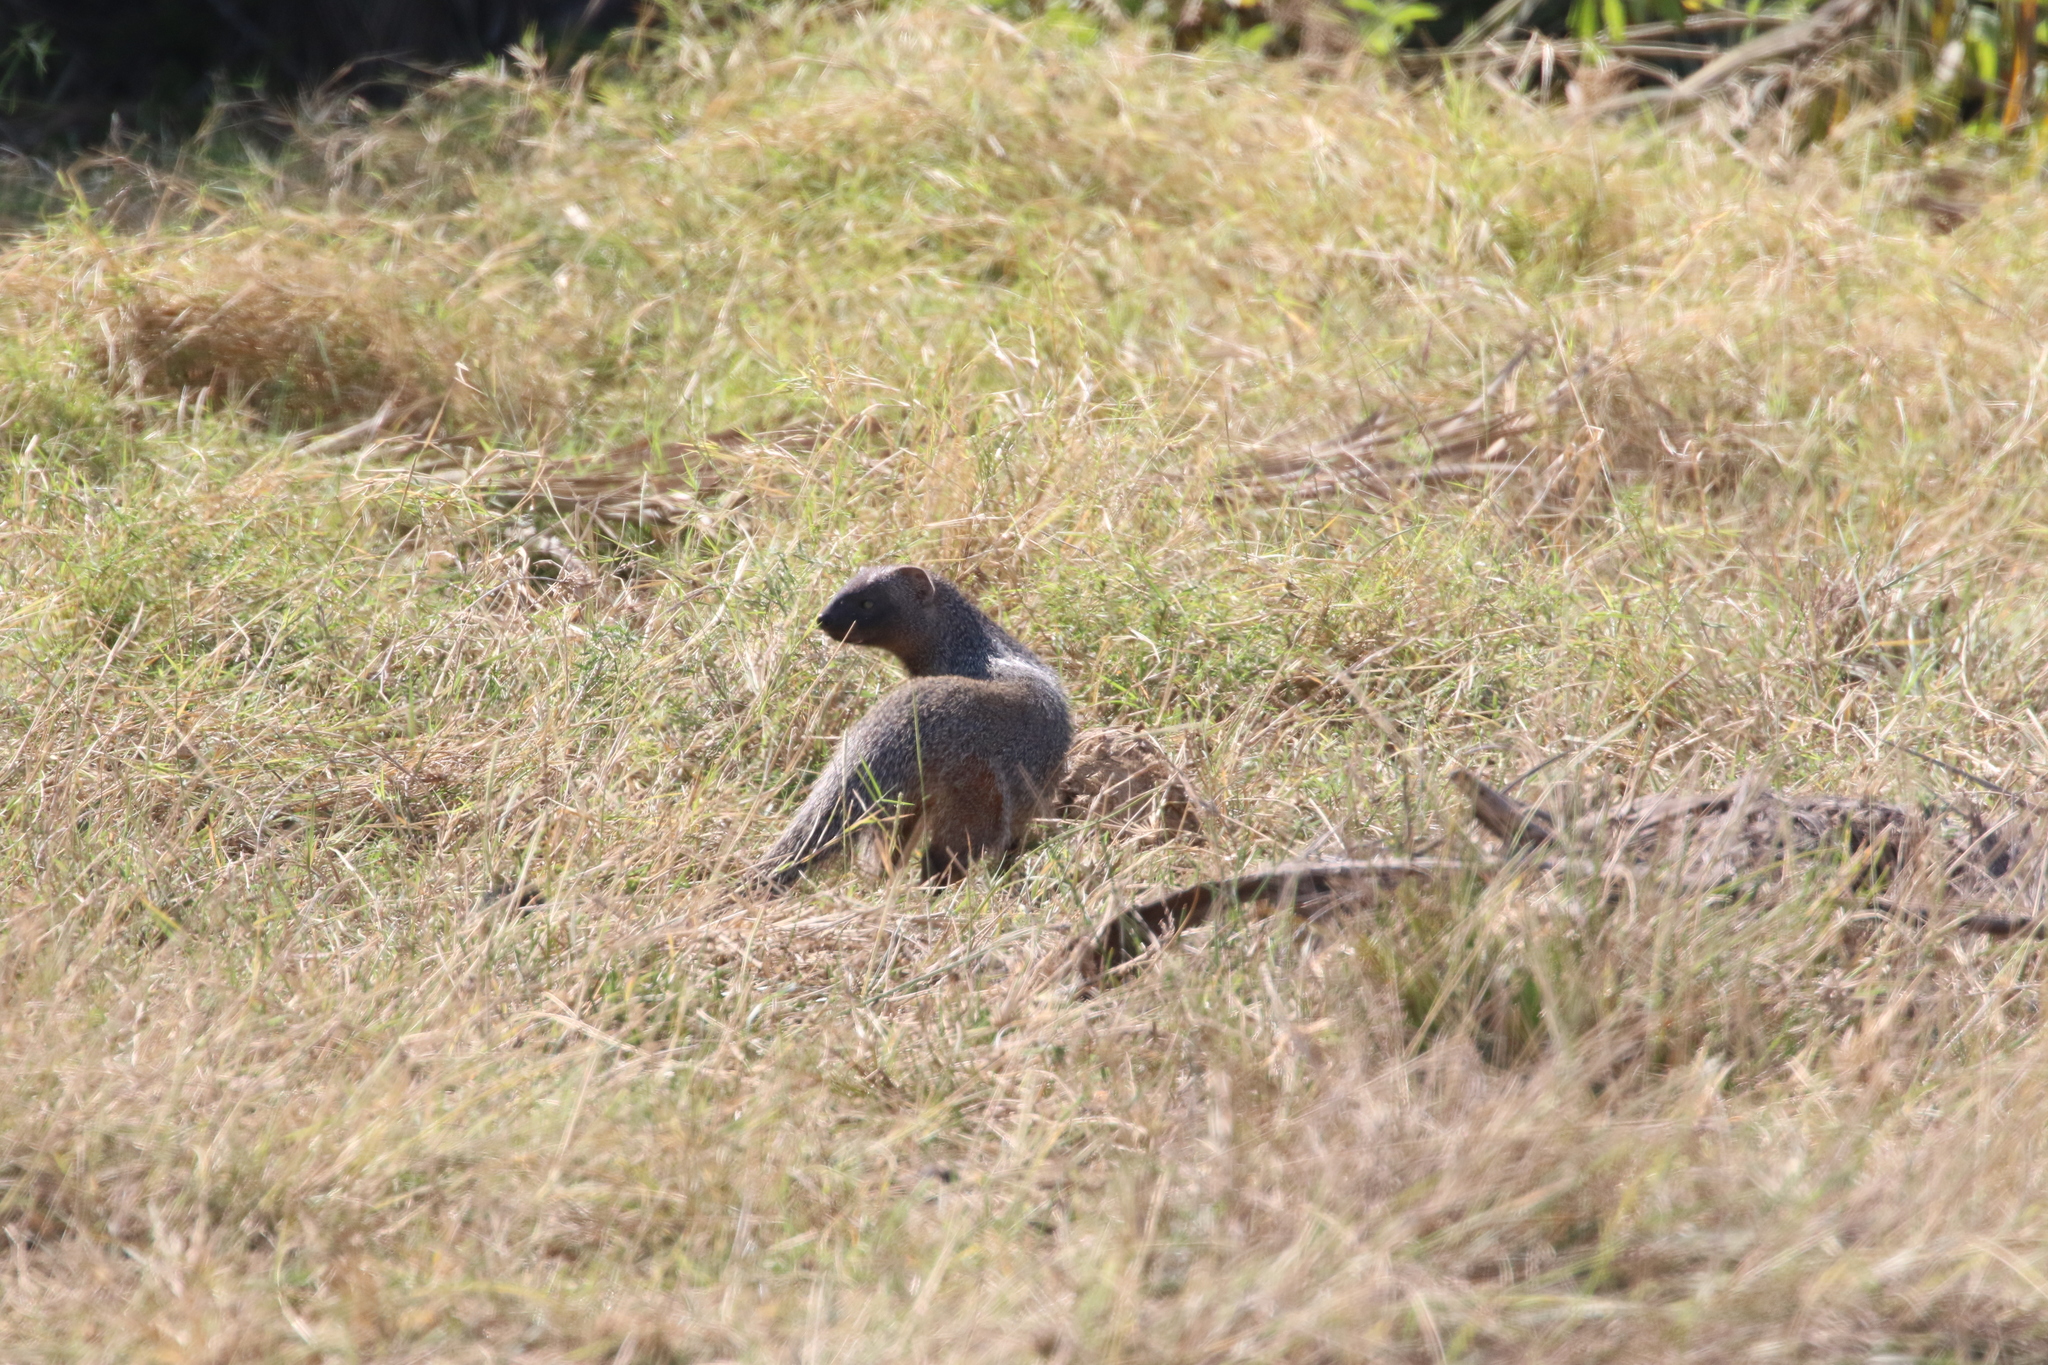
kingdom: Animalia
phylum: Chordata
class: Mammalia
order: Carnivora
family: Herpestidae
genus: Herpestes
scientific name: Herpestes ichneumon
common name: Egyptian mongoose
